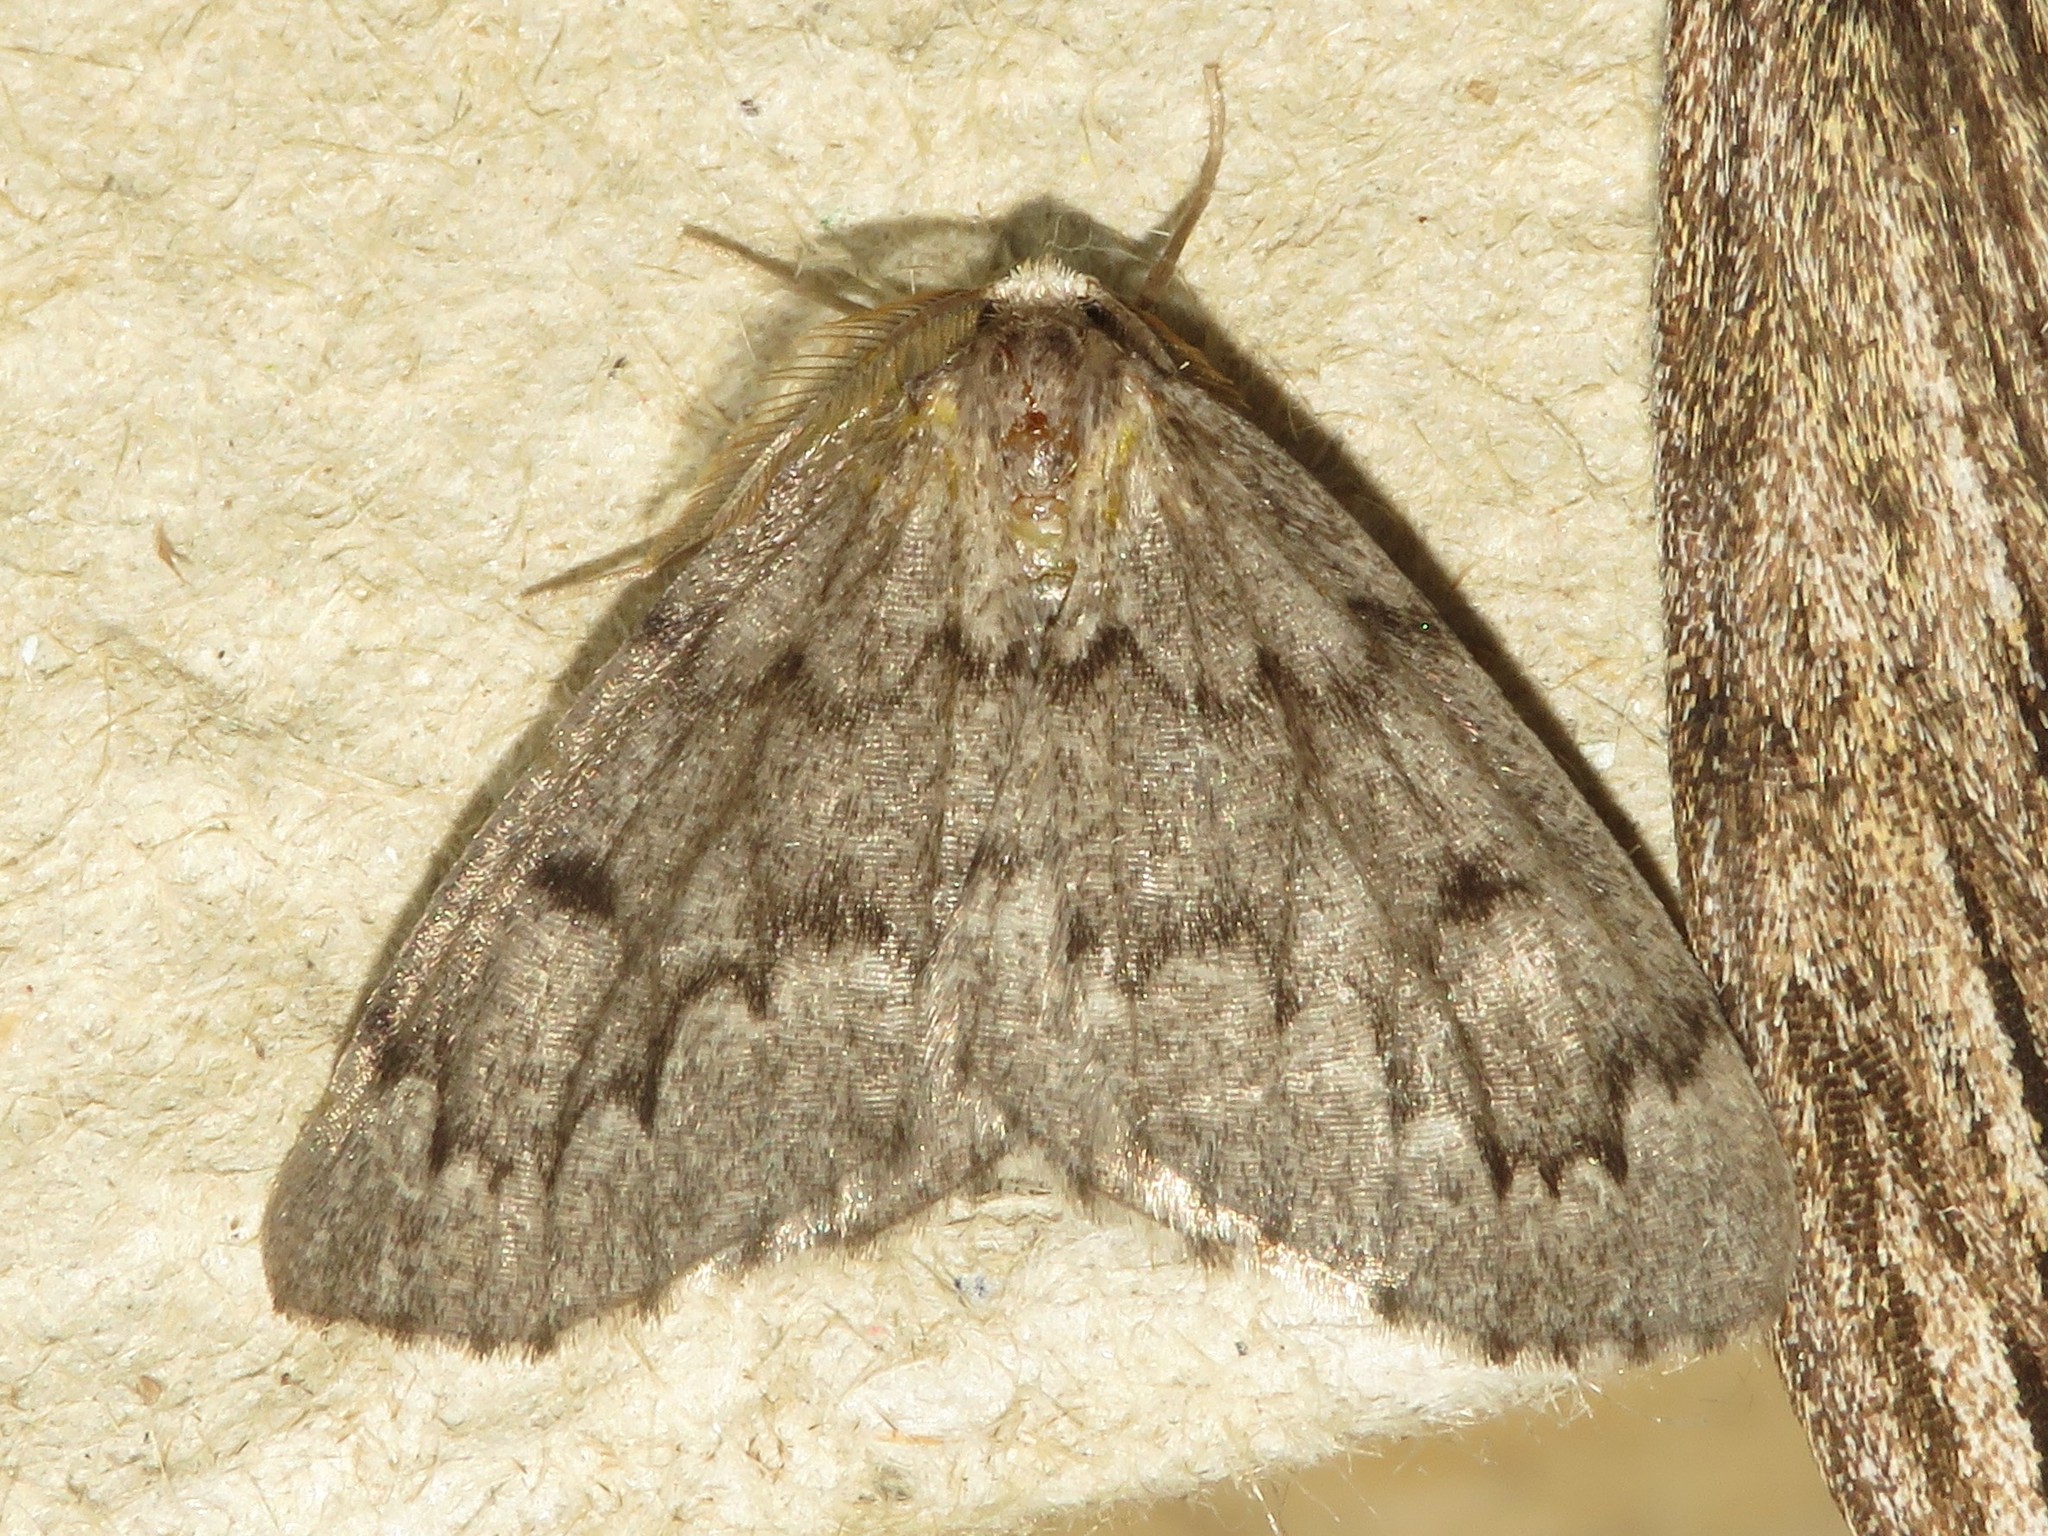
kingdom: Animalia
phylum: Arthropoda
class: Insecta
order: Lepidoptera
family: Geometridae
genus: Nepytia
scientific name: Nepytia canosaria
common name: False hemlock looper
